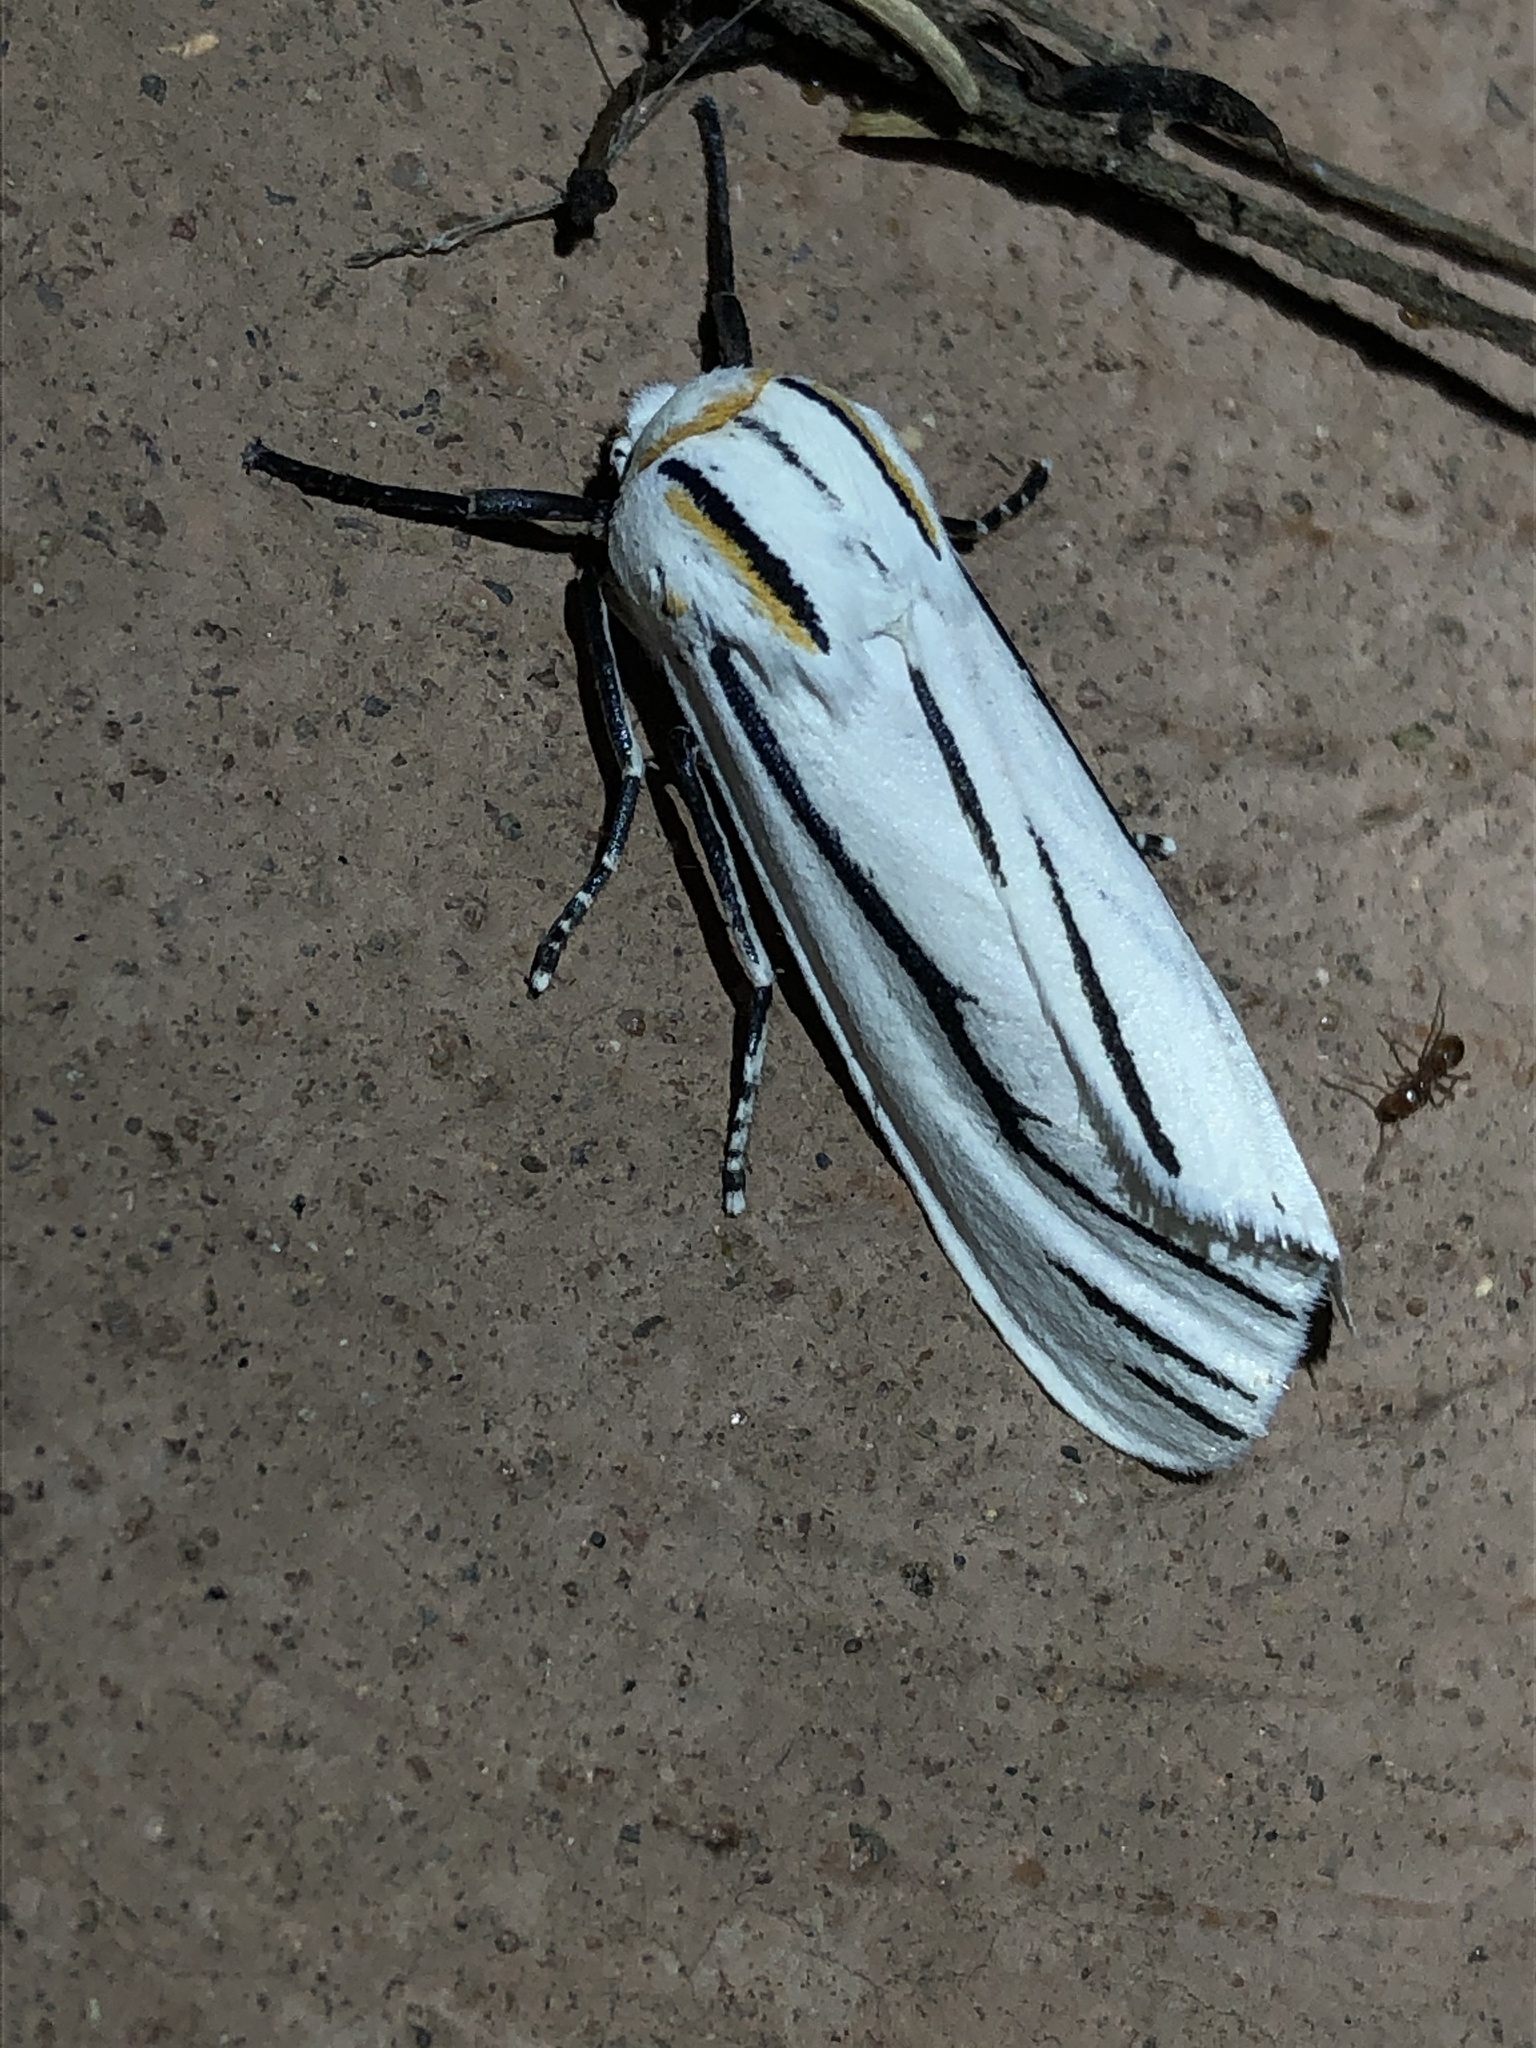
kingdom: Animalia
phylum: Arthropoda
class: Insecta
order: Lepidoptera
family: Erebidae
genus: Ectypia
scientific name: Ectypia clio
